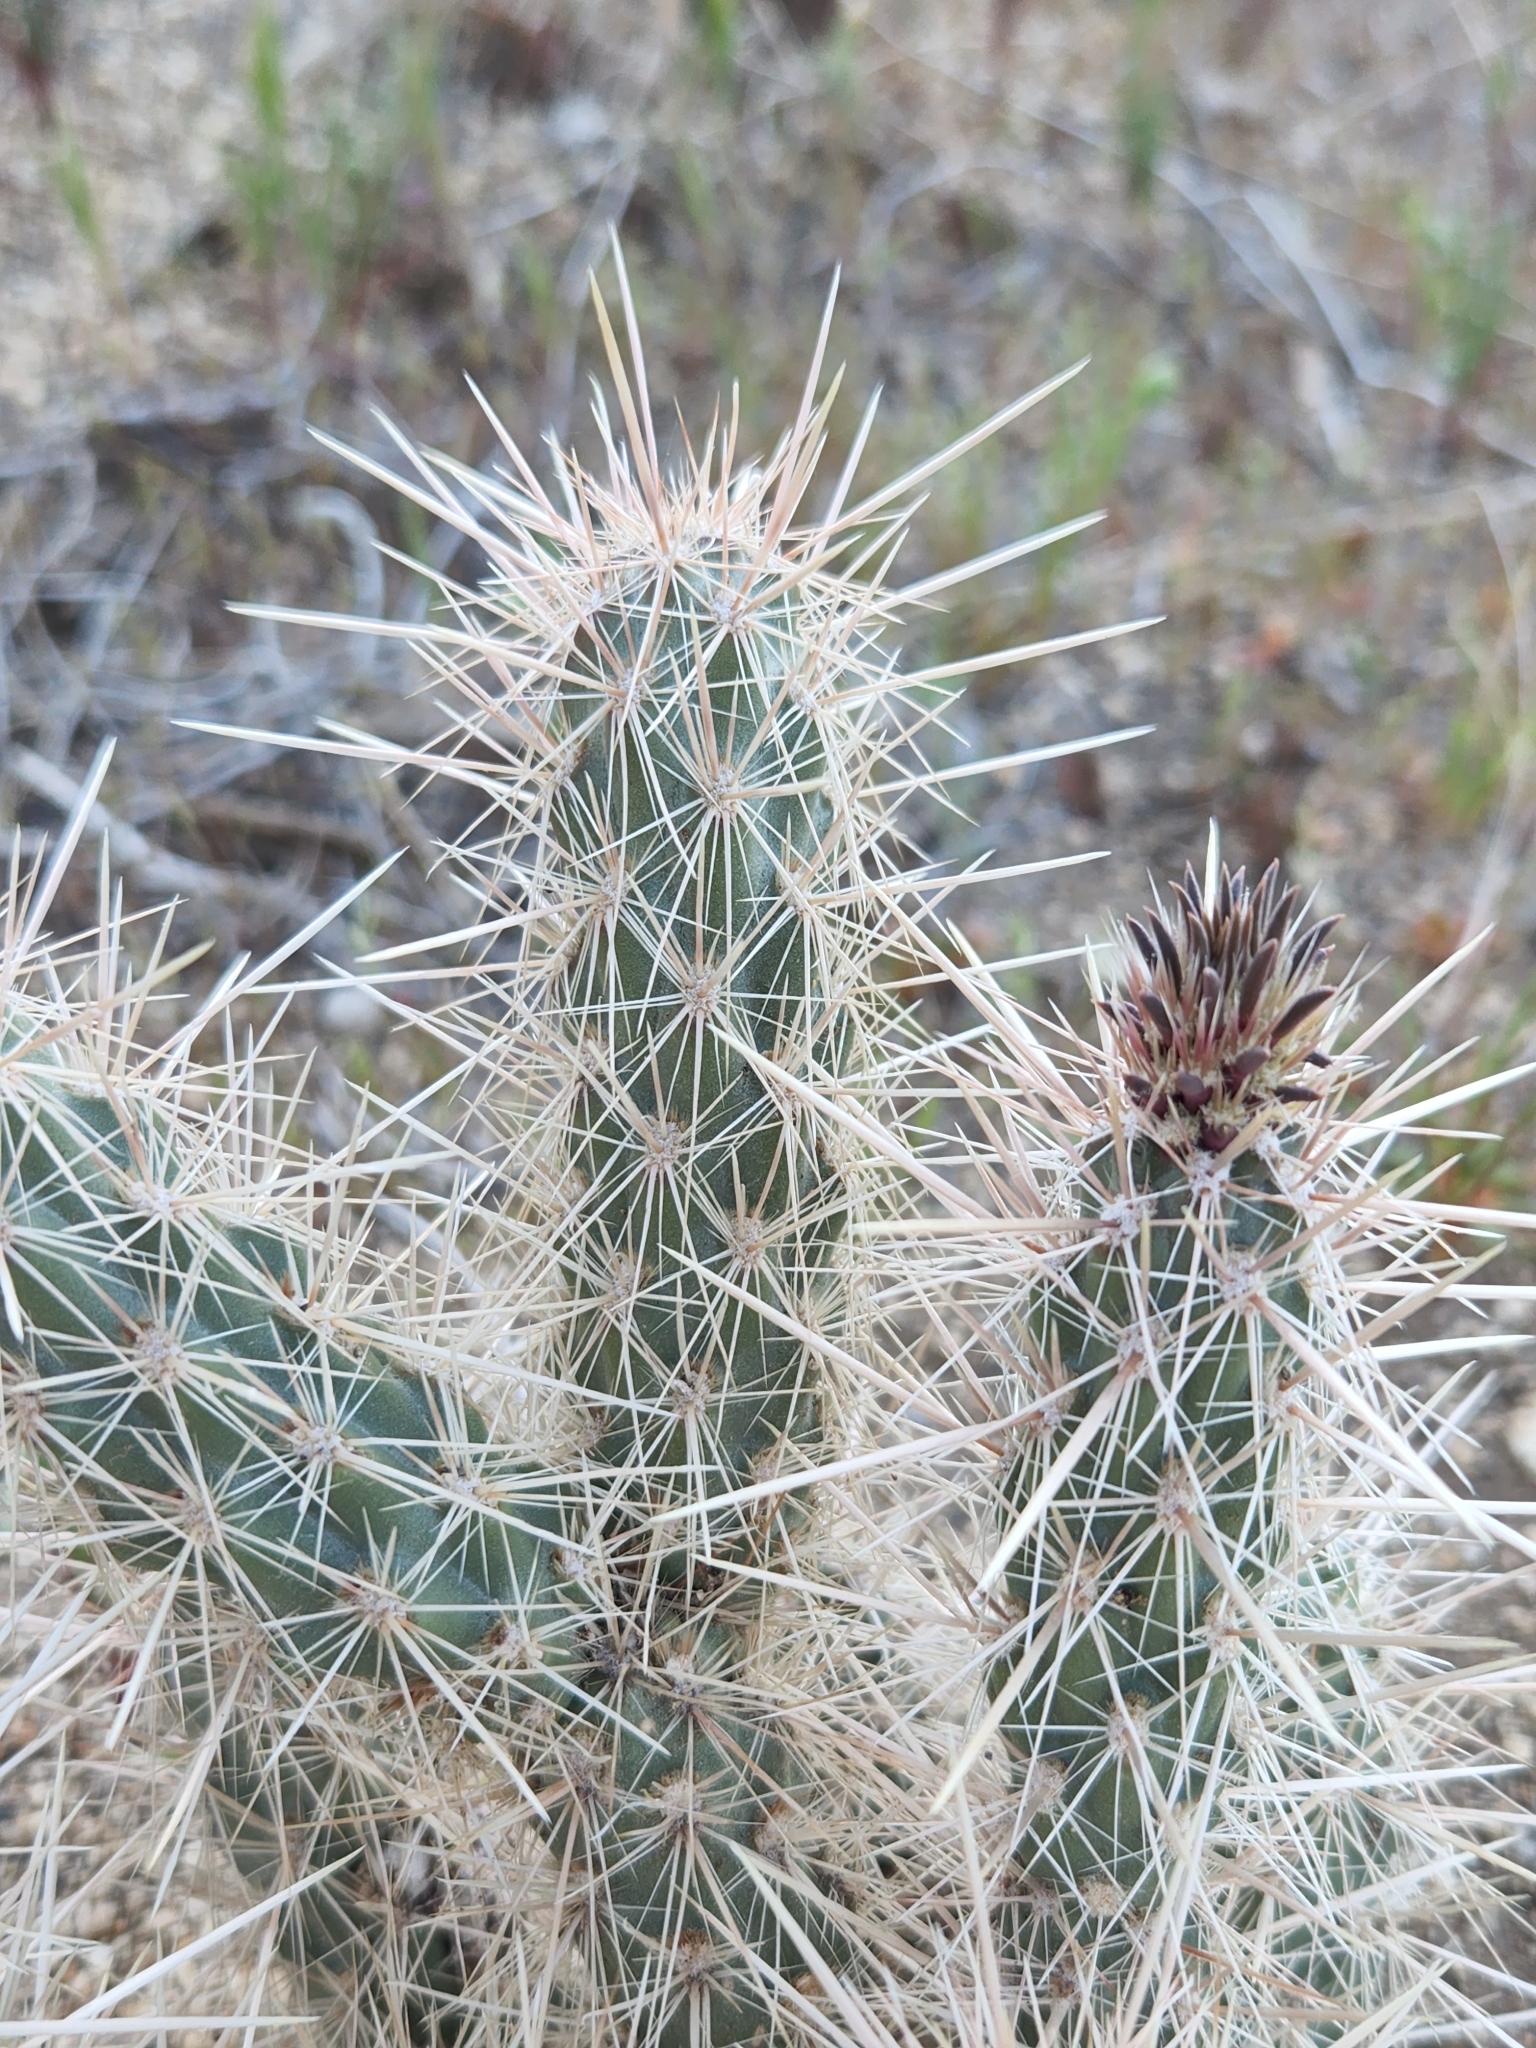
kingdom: Plantae
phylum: Tracheophyta
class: Magnoliopsida
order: Caryophyllales
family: Cactaceae
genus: Cylindropuntia
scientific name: Cylindropuntia echinocarpa
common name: Ground cholla
